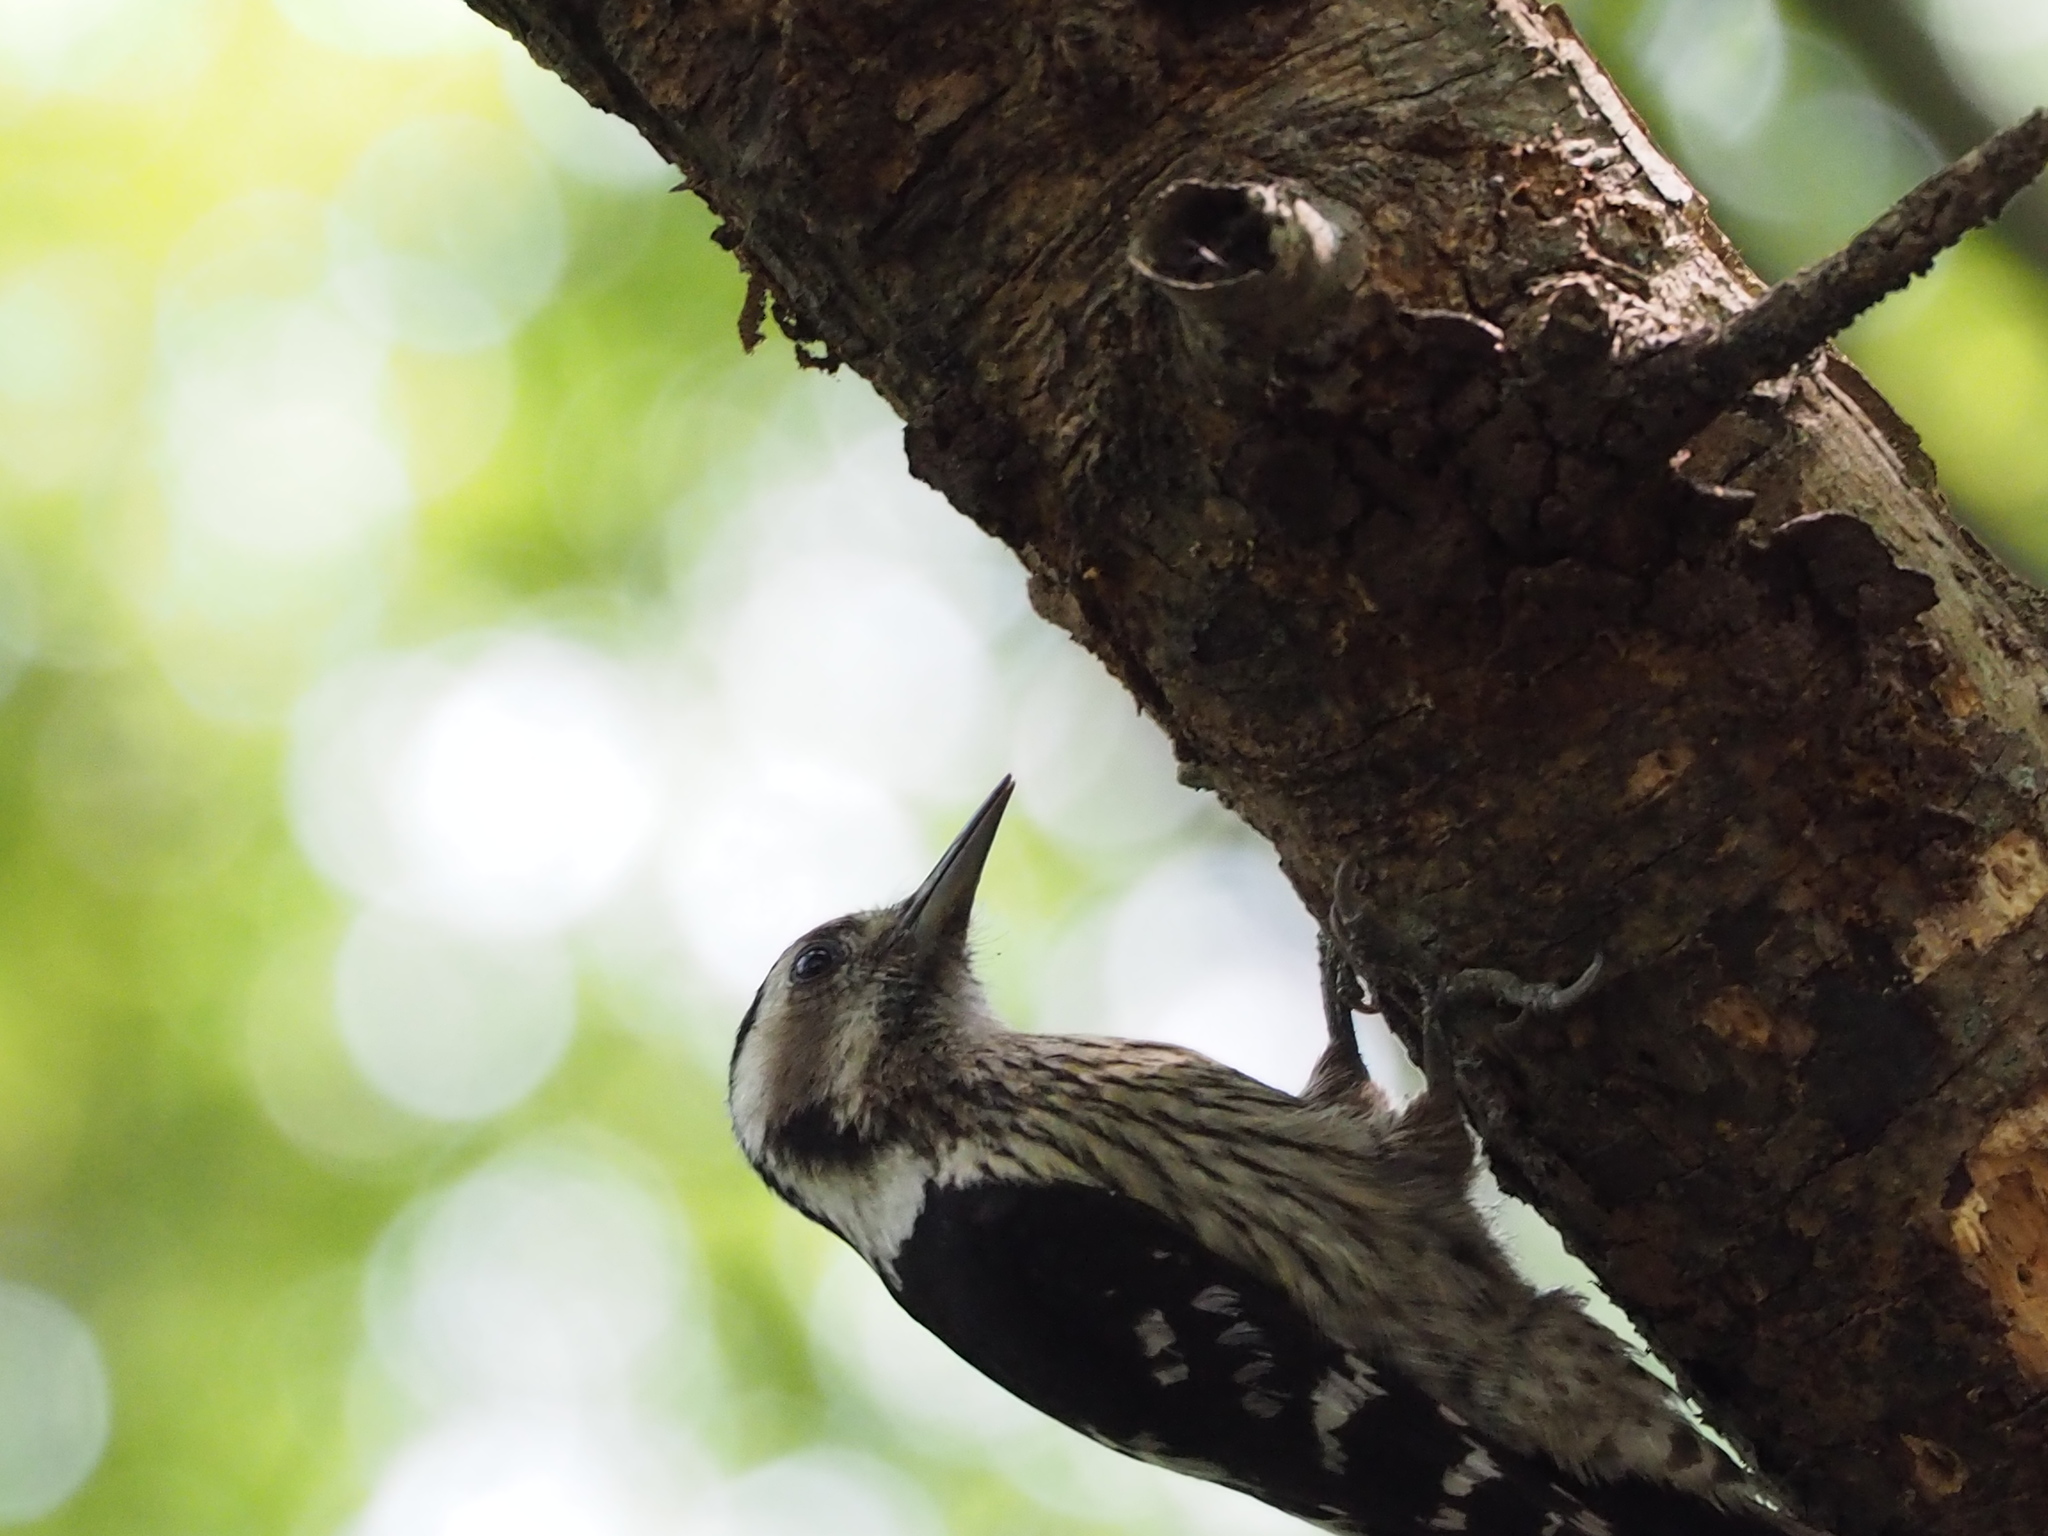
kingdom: Animalia
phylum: Chordata
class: Aves
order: Piciformes
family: Picidae
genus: Yungipicus
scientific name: Yungipicus canicapillus
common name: Grey-capped pygmy woodpecker
